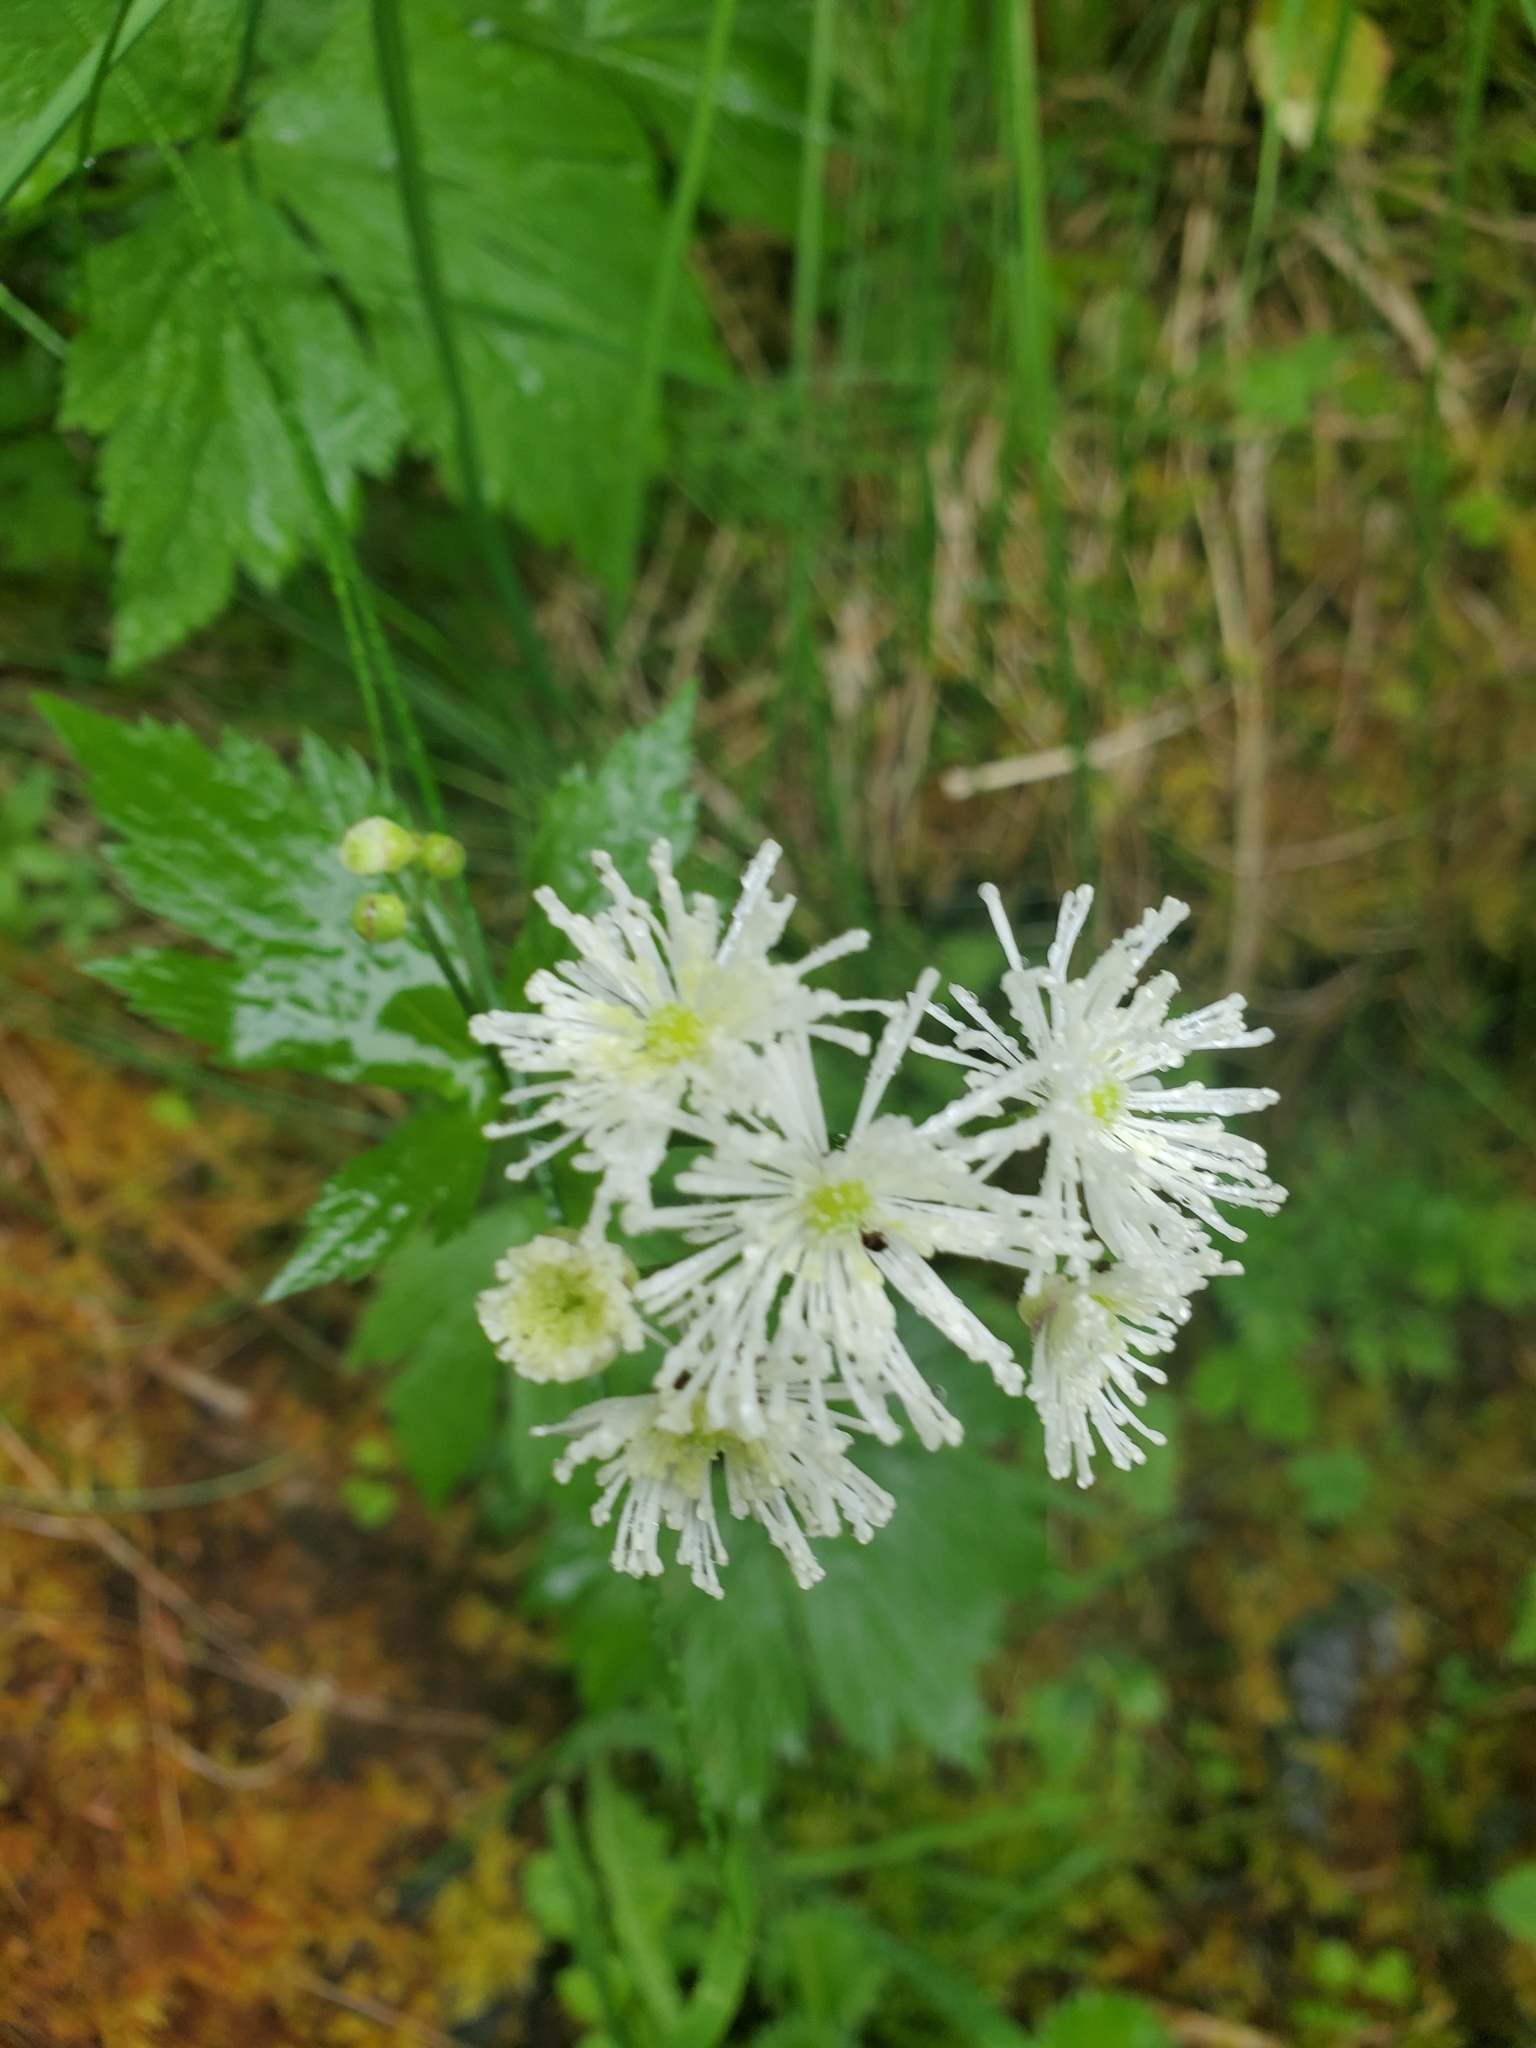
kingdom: Plantae
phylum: Tracheophyta
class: Magnoliopsida
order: Ranunculales
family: Ranunculaceae
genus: Trautvetteria
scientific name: Trautvetteria carolinensis
